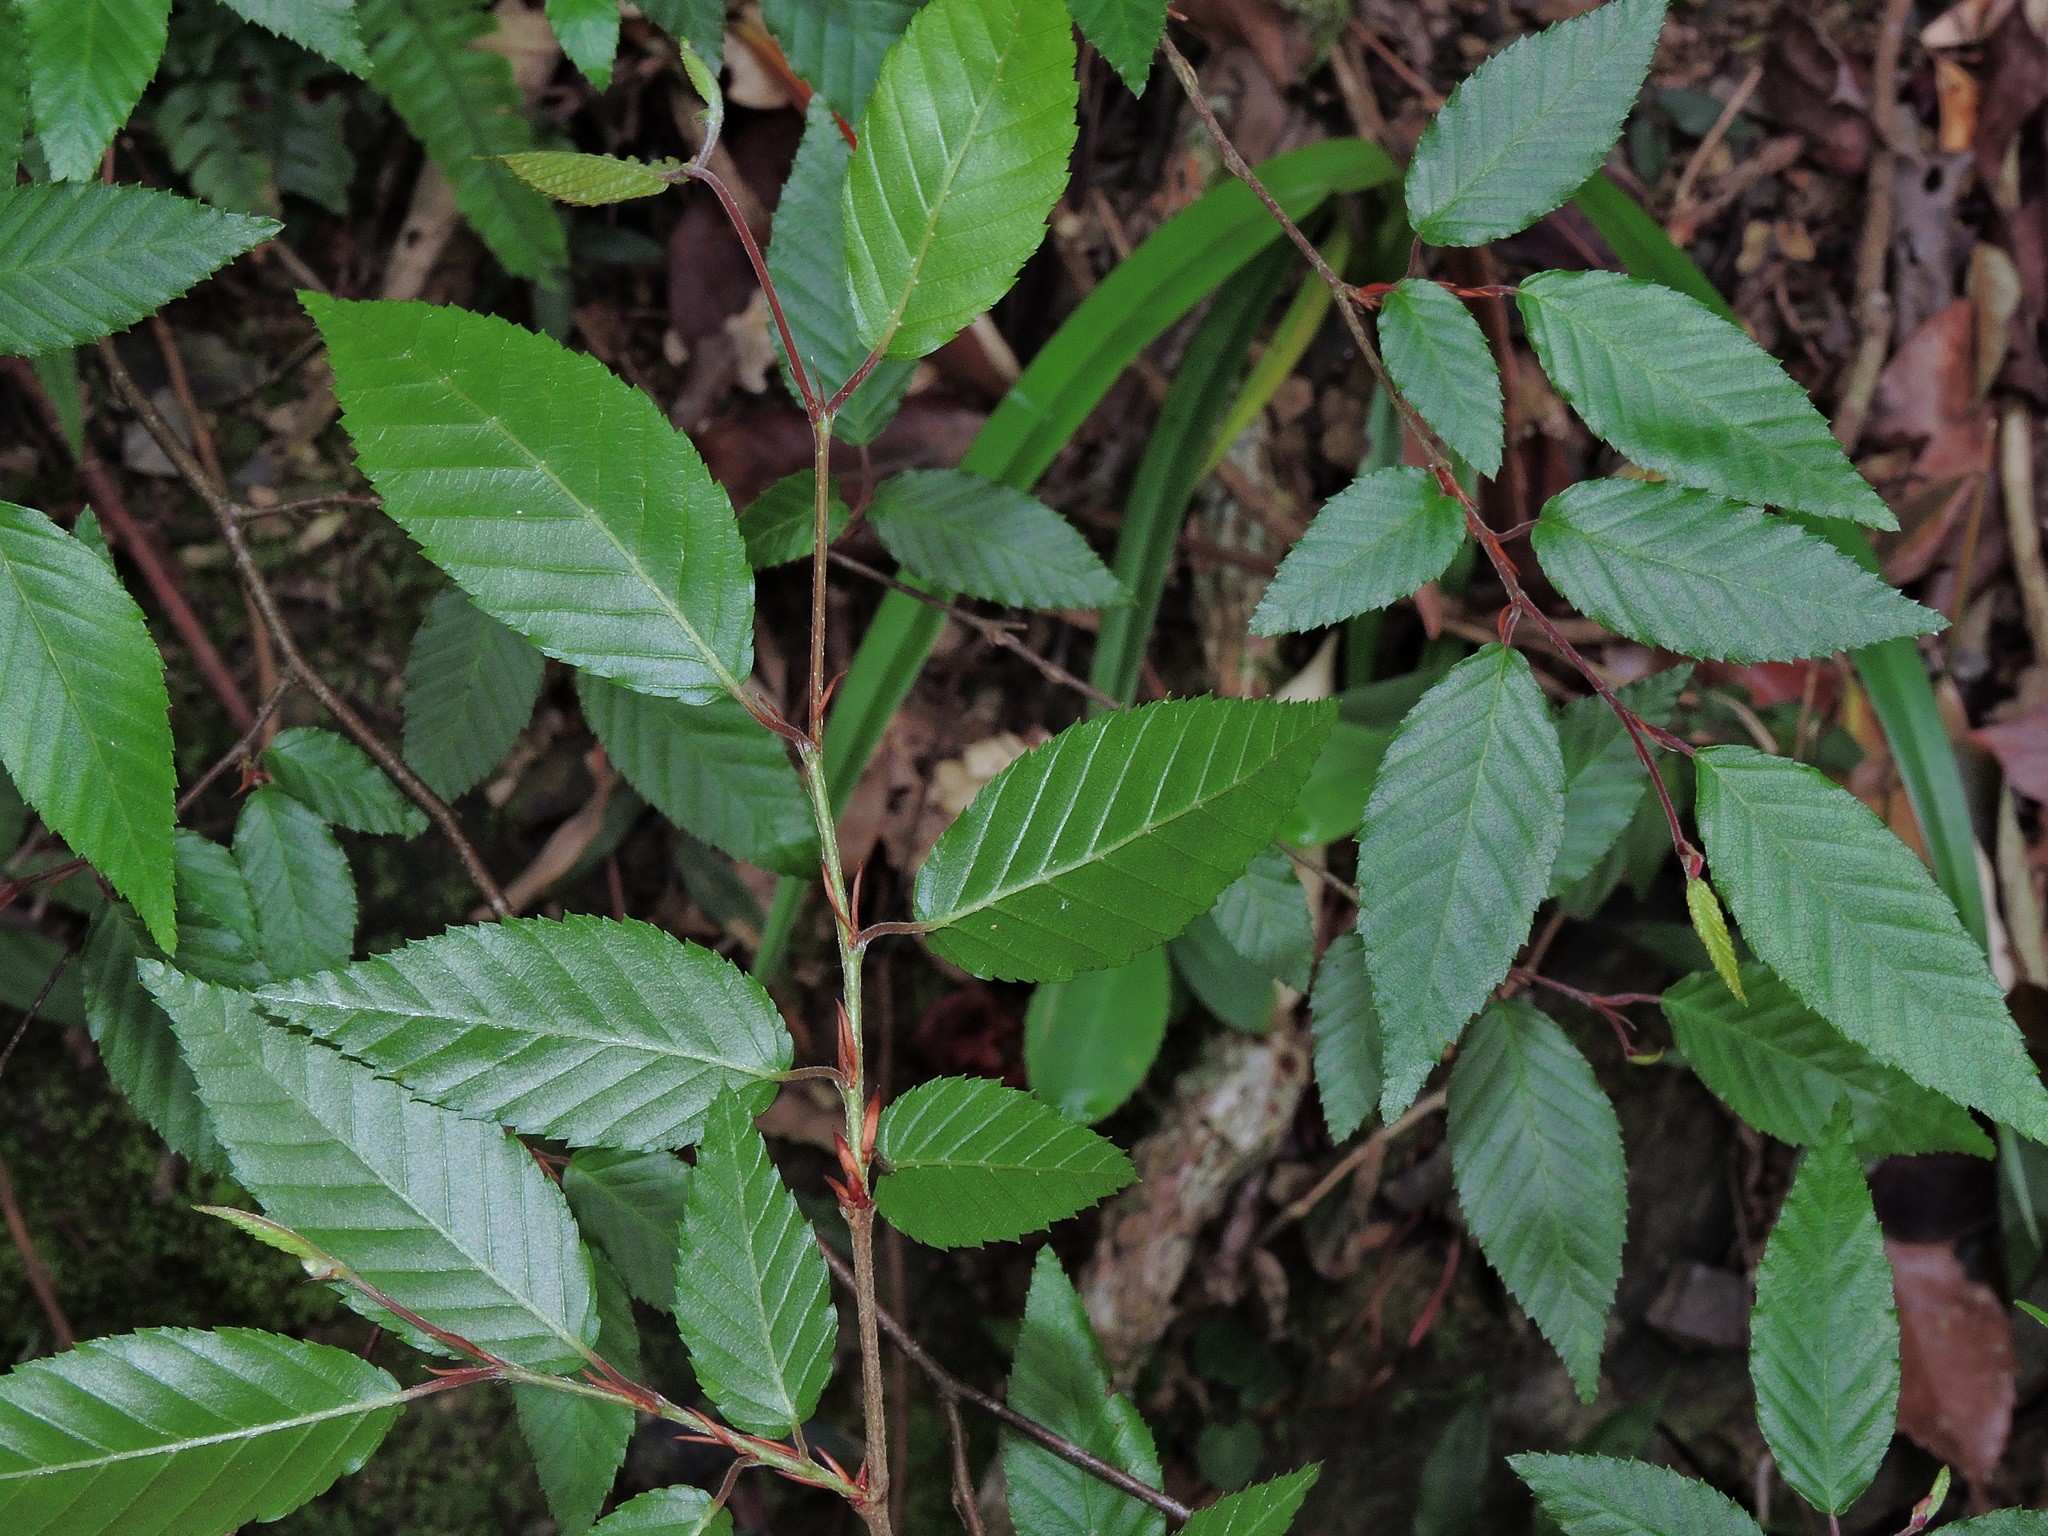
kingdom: Plantae
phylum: Tracheophyta
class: Magnoliopsida
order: Fagales
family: Betulaceae
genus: Carpinus
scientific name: Carpinus kawakamii
